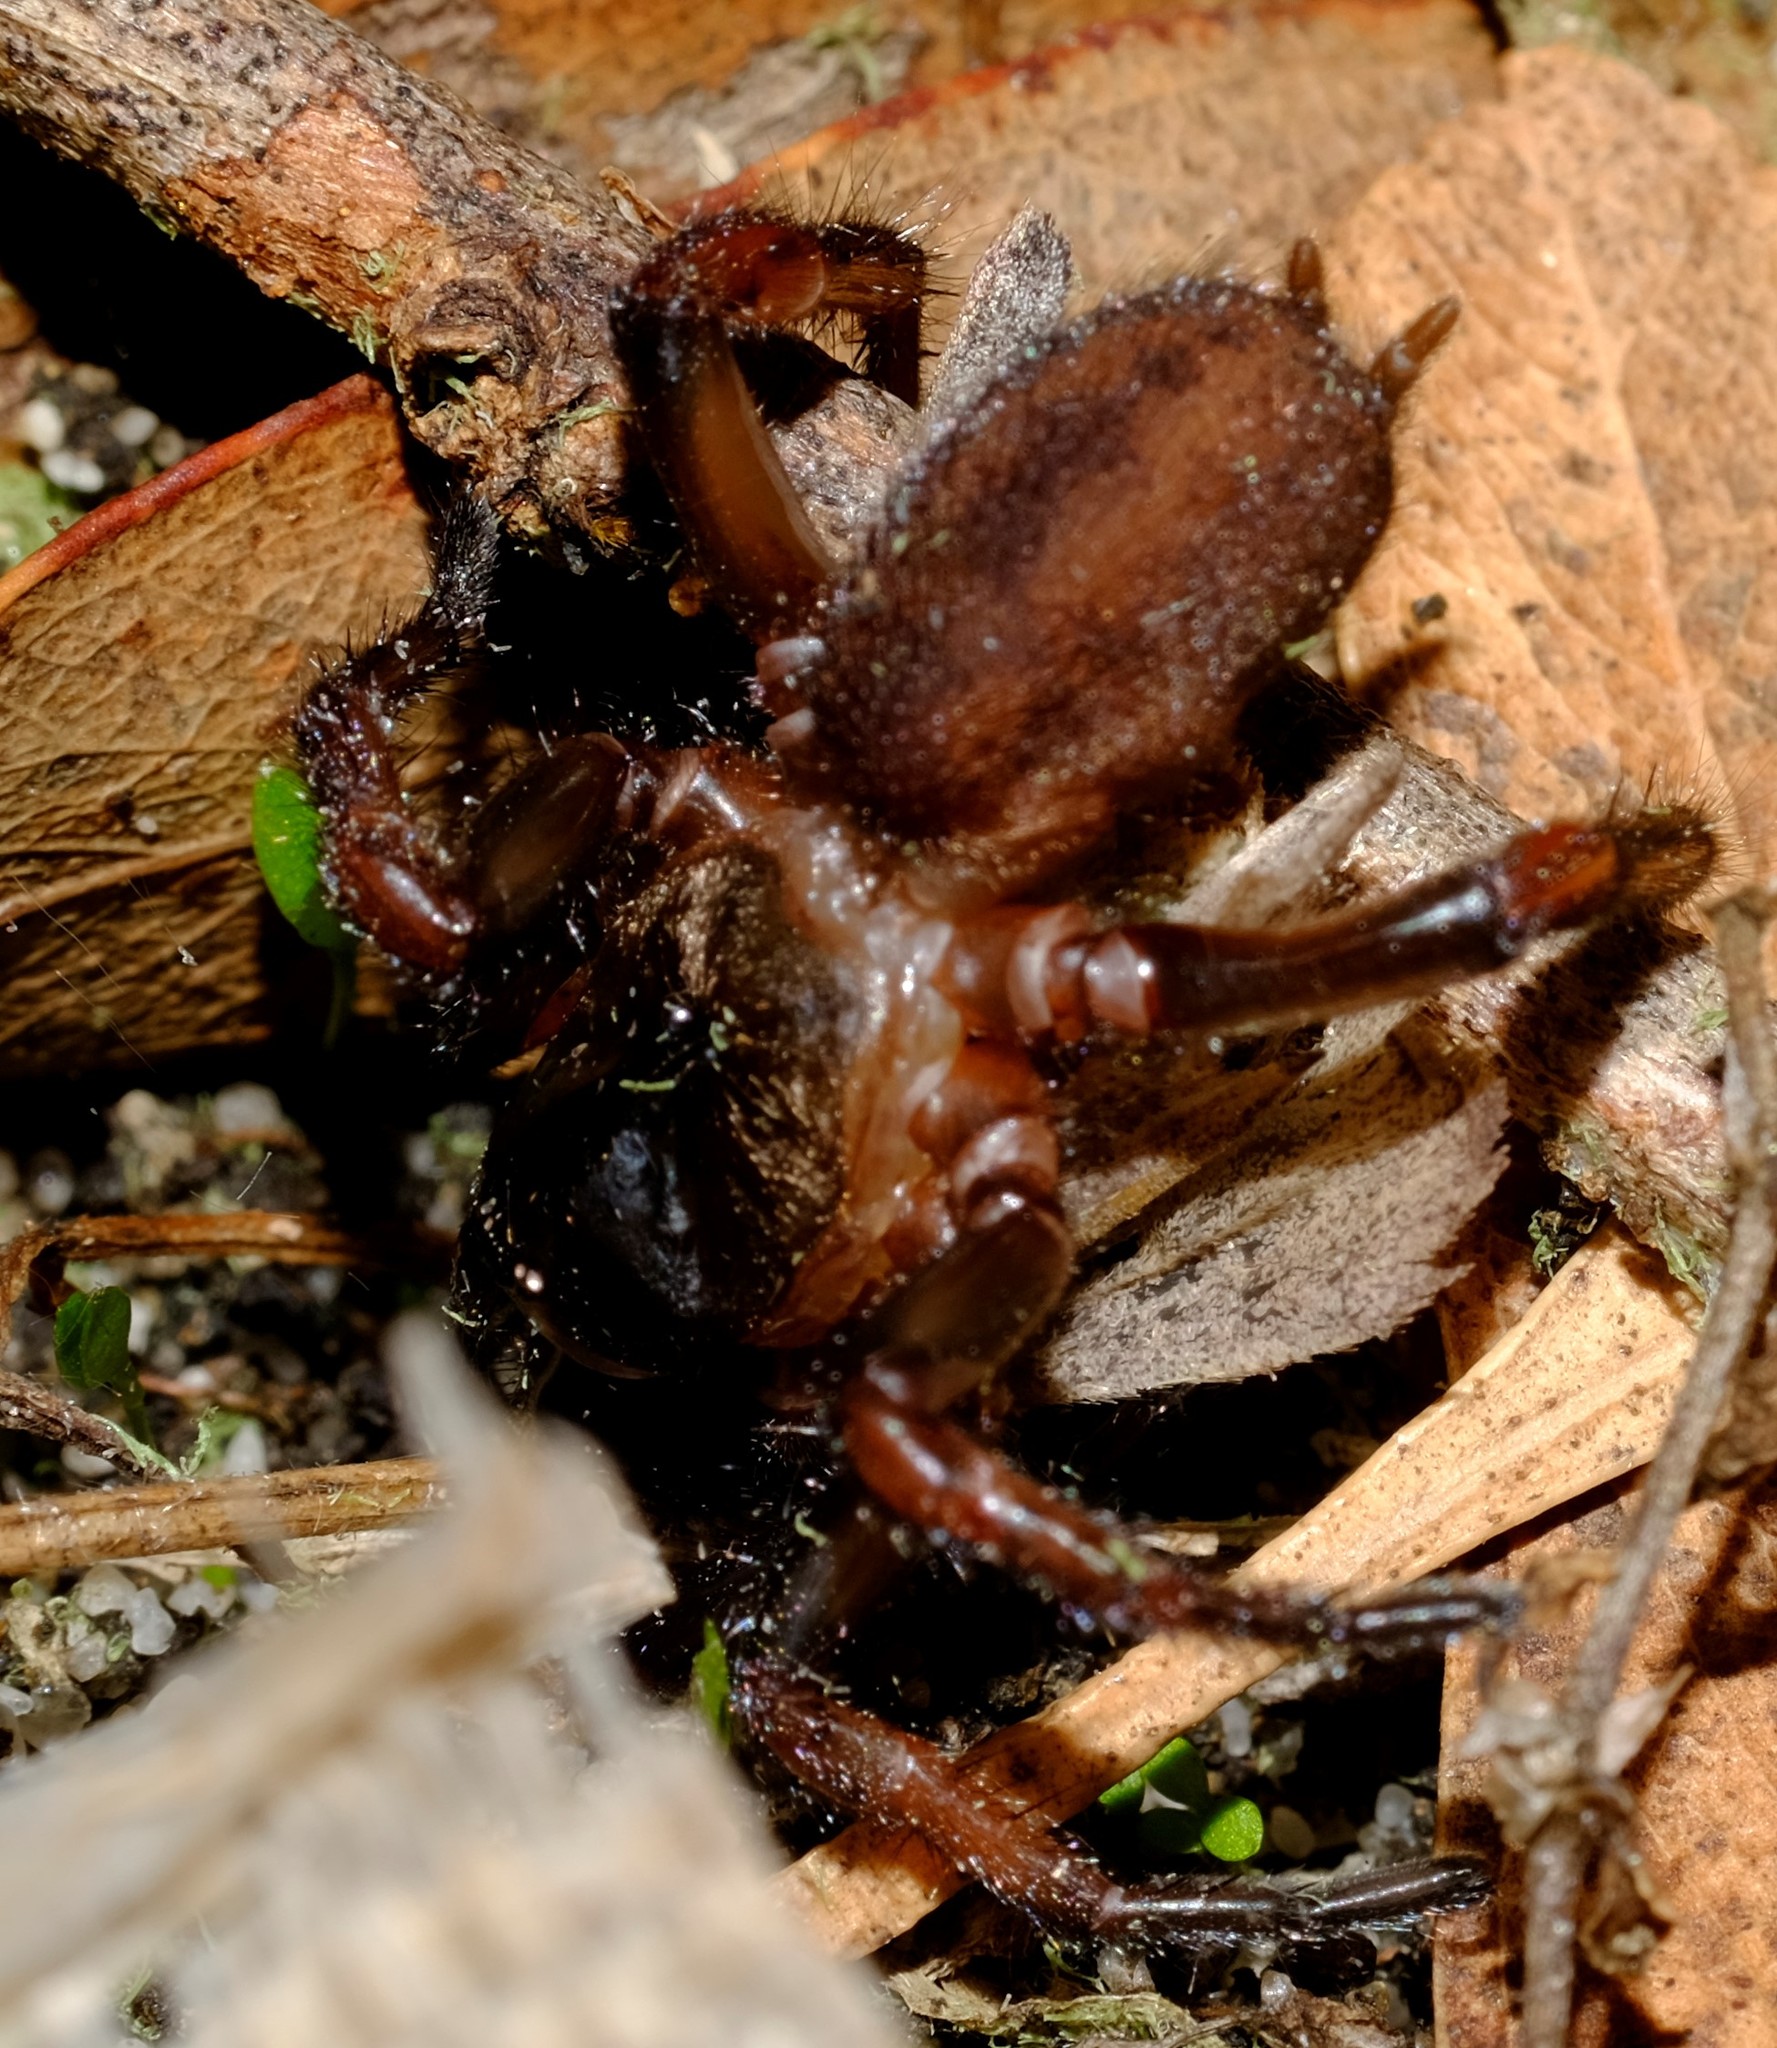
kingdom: Animalia
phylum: Arthropoda
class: Arachnida
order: Araneae
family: Pycnothelidae
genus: Stanwellia
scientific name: Stanwellia
